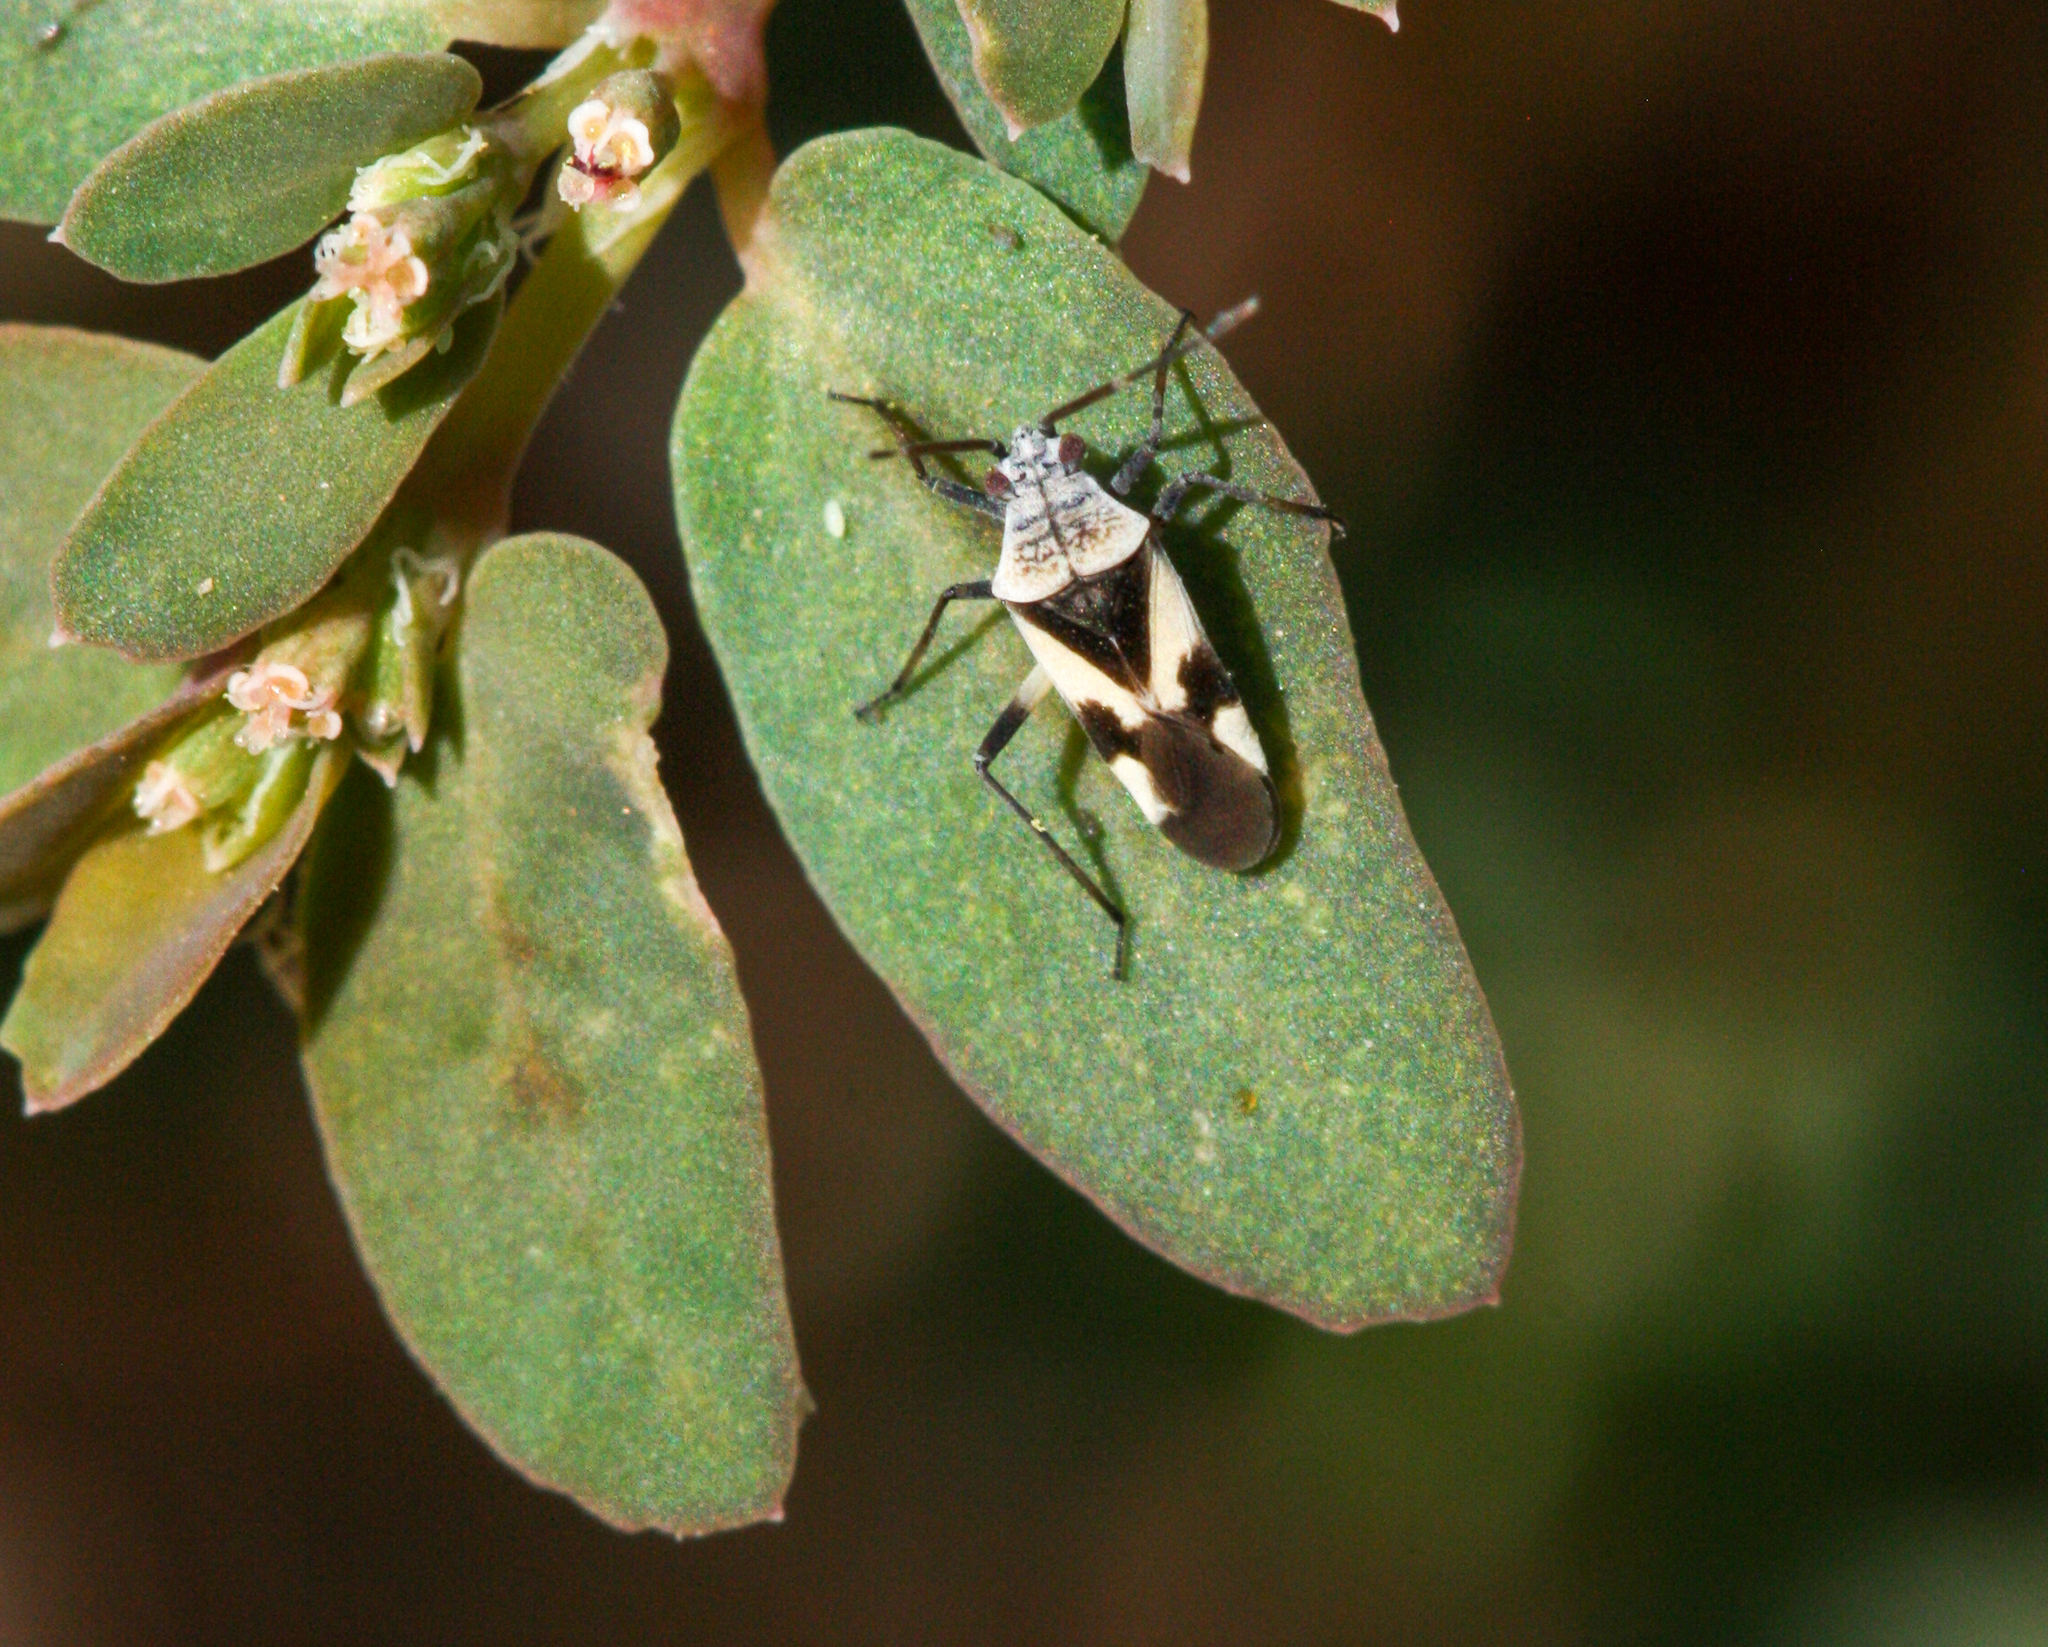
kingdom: Animalia
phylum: Arthropoda
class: Insecta
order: Hemiptera
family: Miridae
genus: Semium
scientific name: Semium subglabrum
